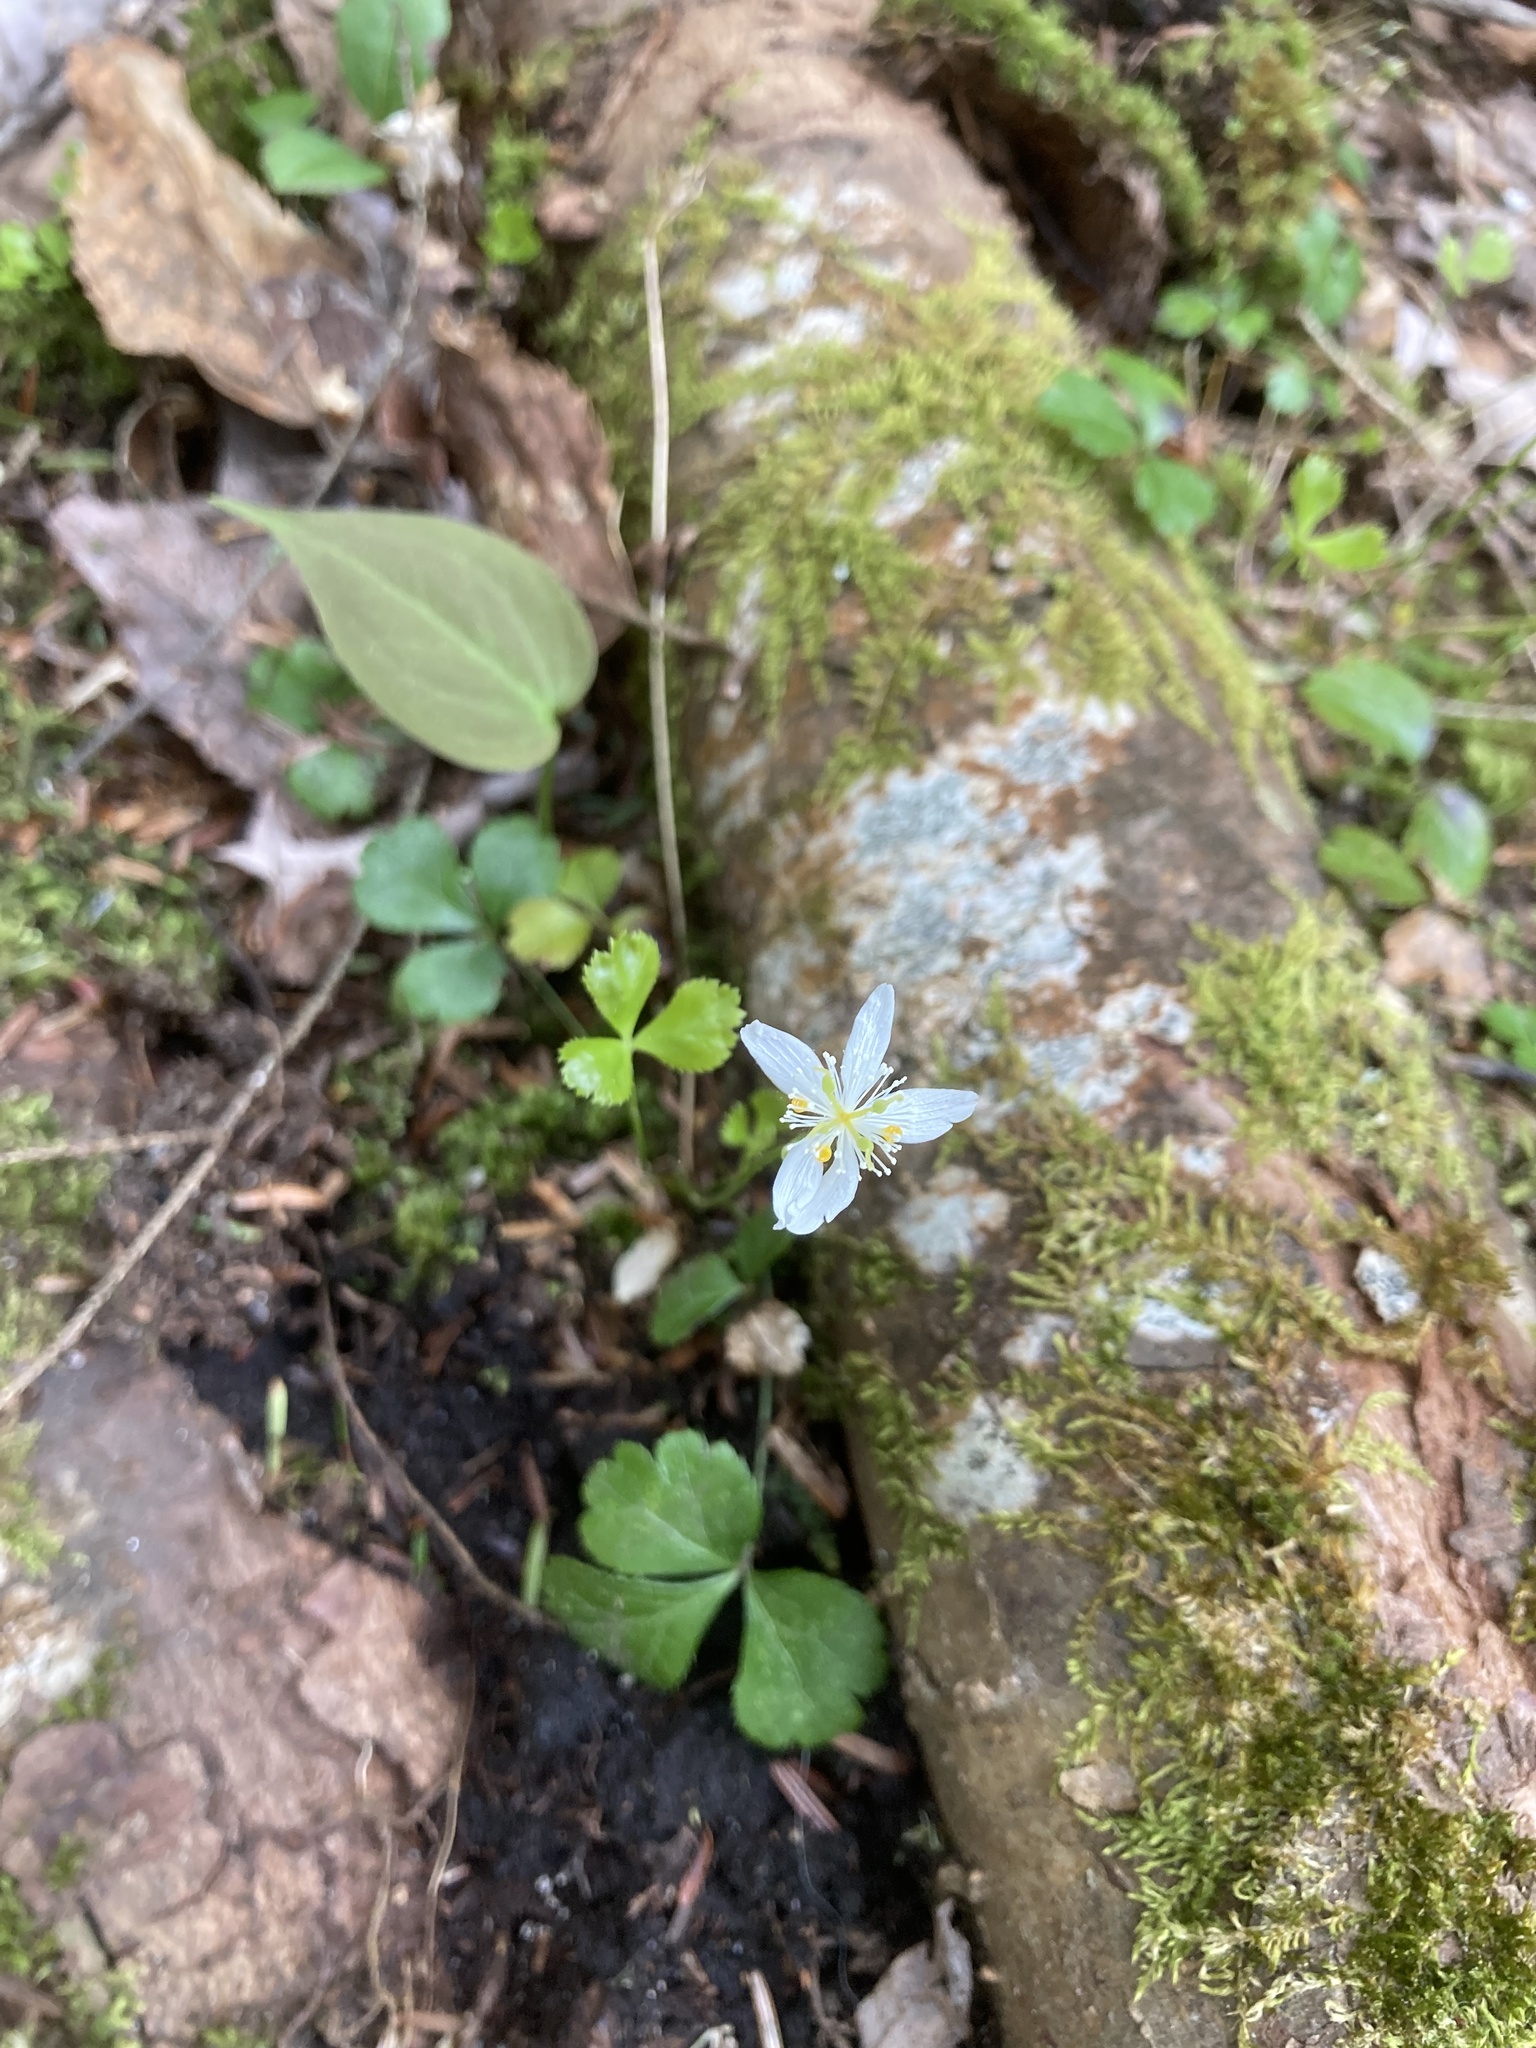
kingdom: Plantae
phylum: Tracheophyta
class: Magnoliopsida
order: Ranunculales
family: Ranunculaceae
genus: Coptis
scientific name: Coptis trifolia
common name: Canker-root
